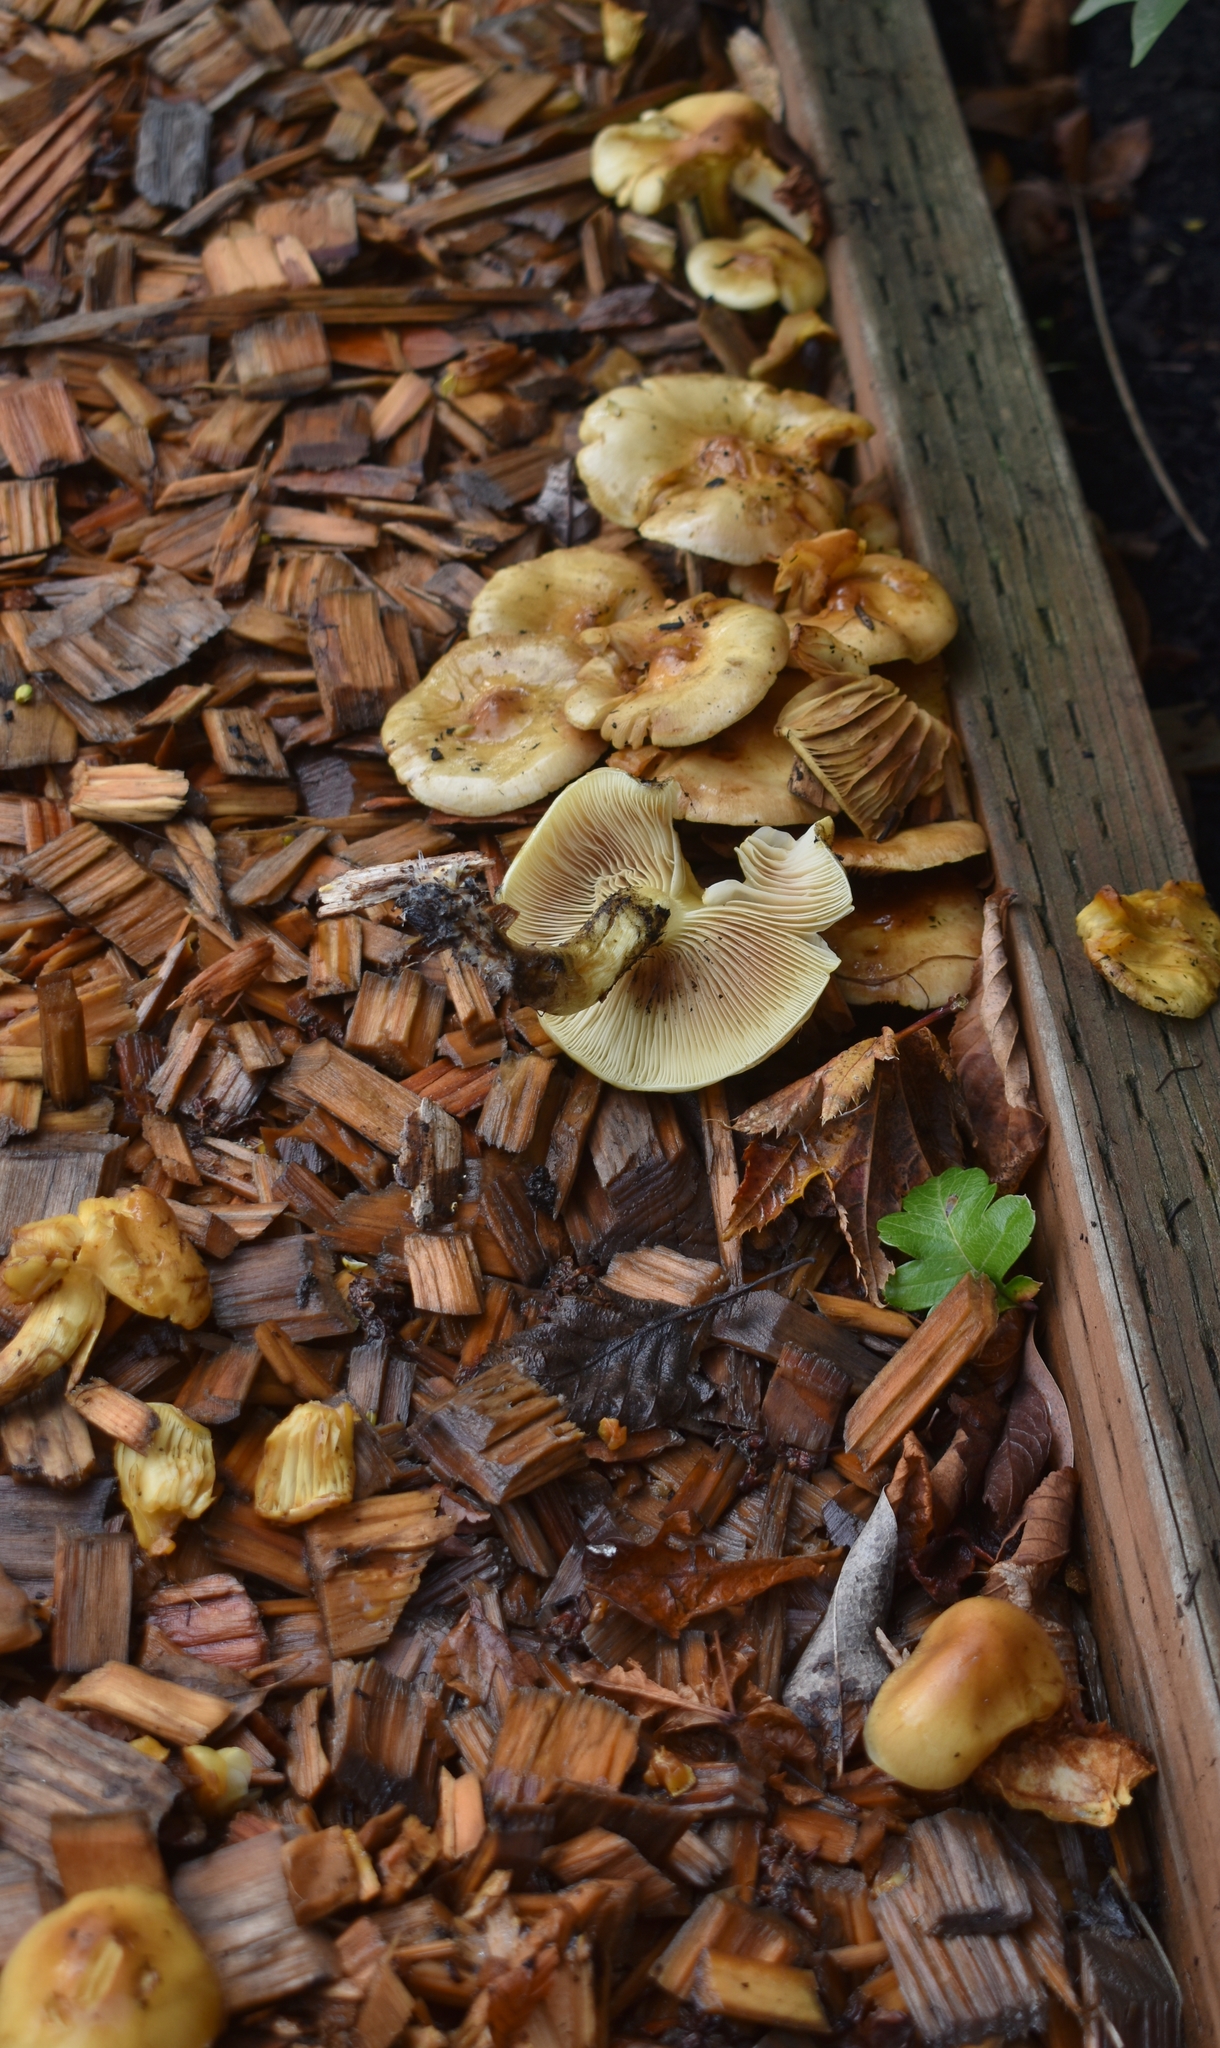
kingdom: Fungi
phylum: Basidiomycota
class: Agaricomycetes
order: Agaricales
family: Strophariaceae
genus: Pholiota
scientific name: Pholiota spumosa
